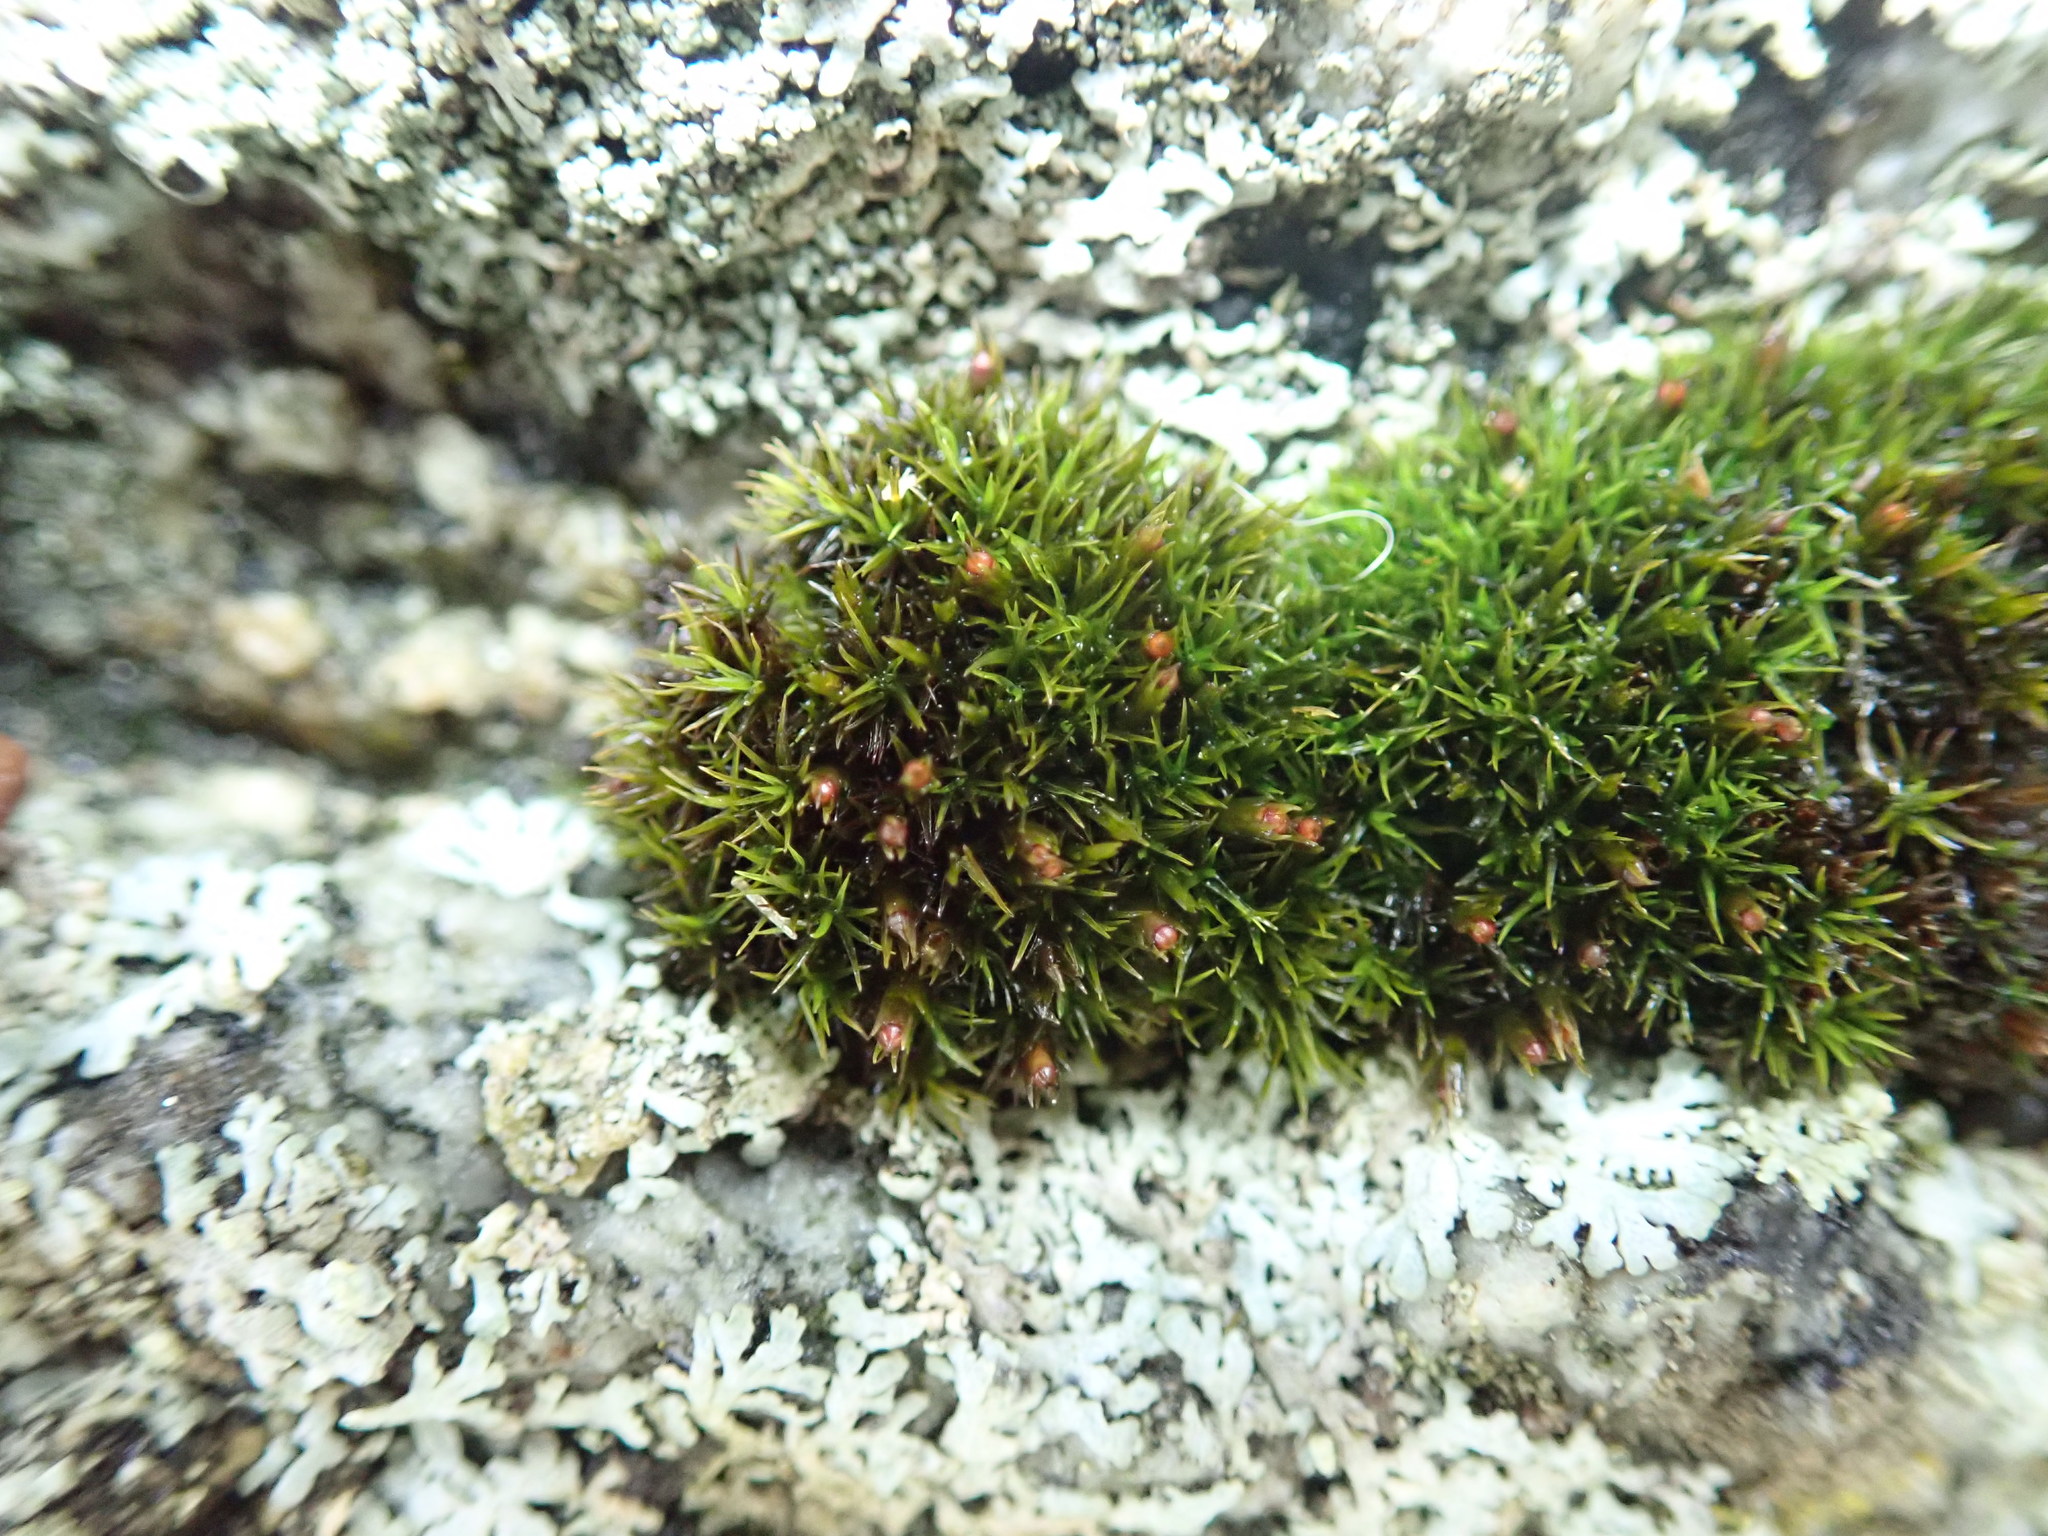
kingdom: Plantae
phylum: Bryophyta
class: Bryopsida
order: Grimmiales
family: Grimmiaceae
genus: Schistidium
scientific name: Schistidium maritimum
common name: Seaside bloom moss
